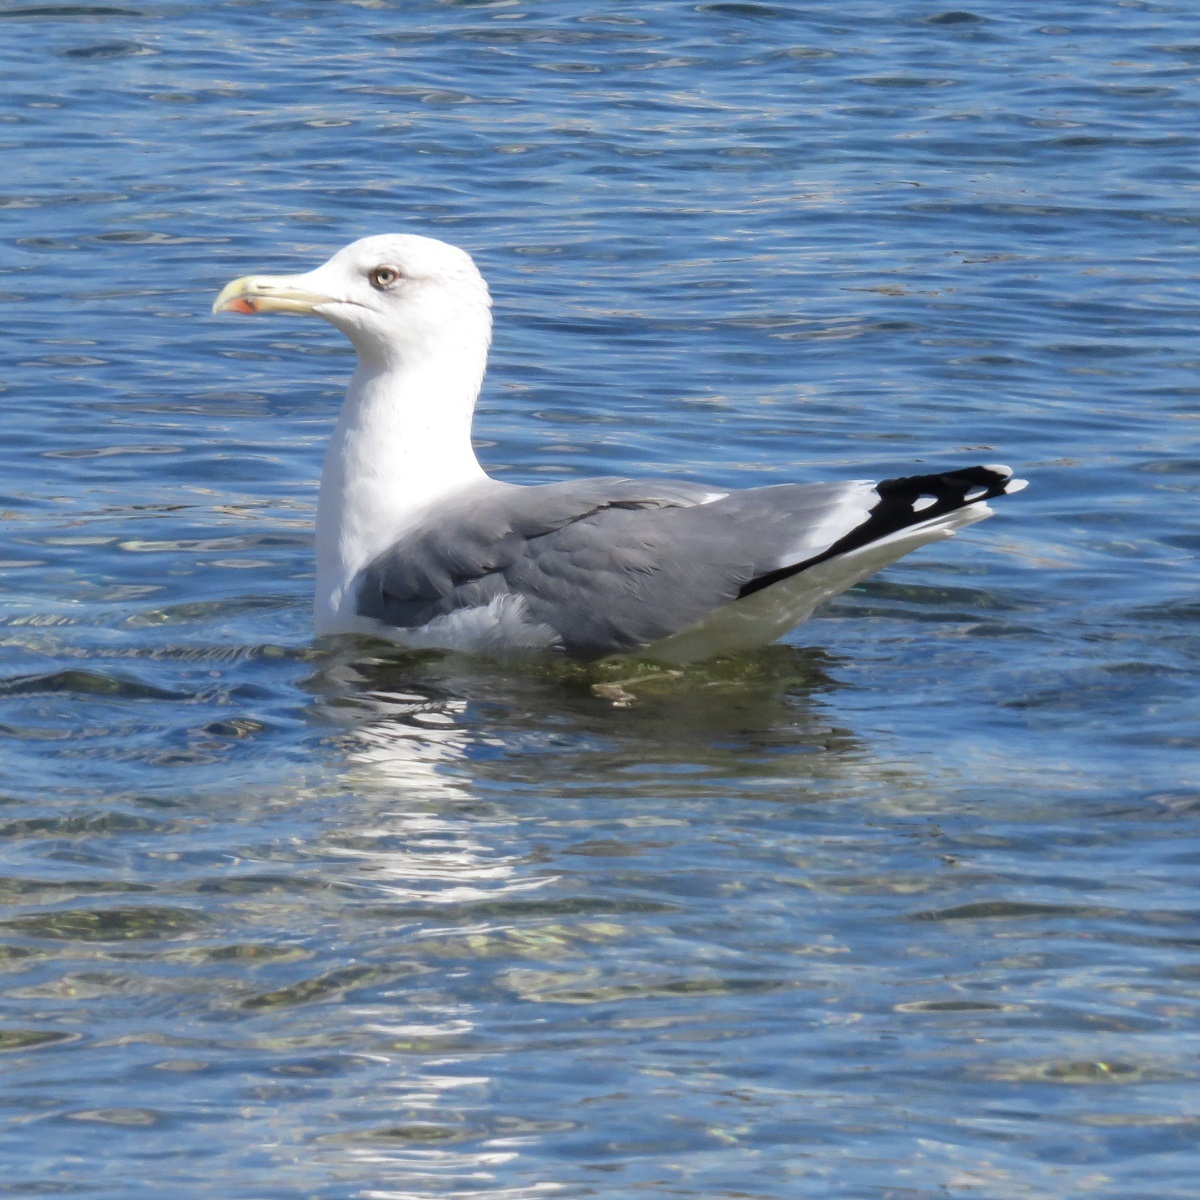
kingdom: Animalia
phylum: Chordata
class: Aves
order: Charadriiformes
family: Laridae
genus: Larus
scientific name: Larus michahellis
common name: Yellow-legged gull
